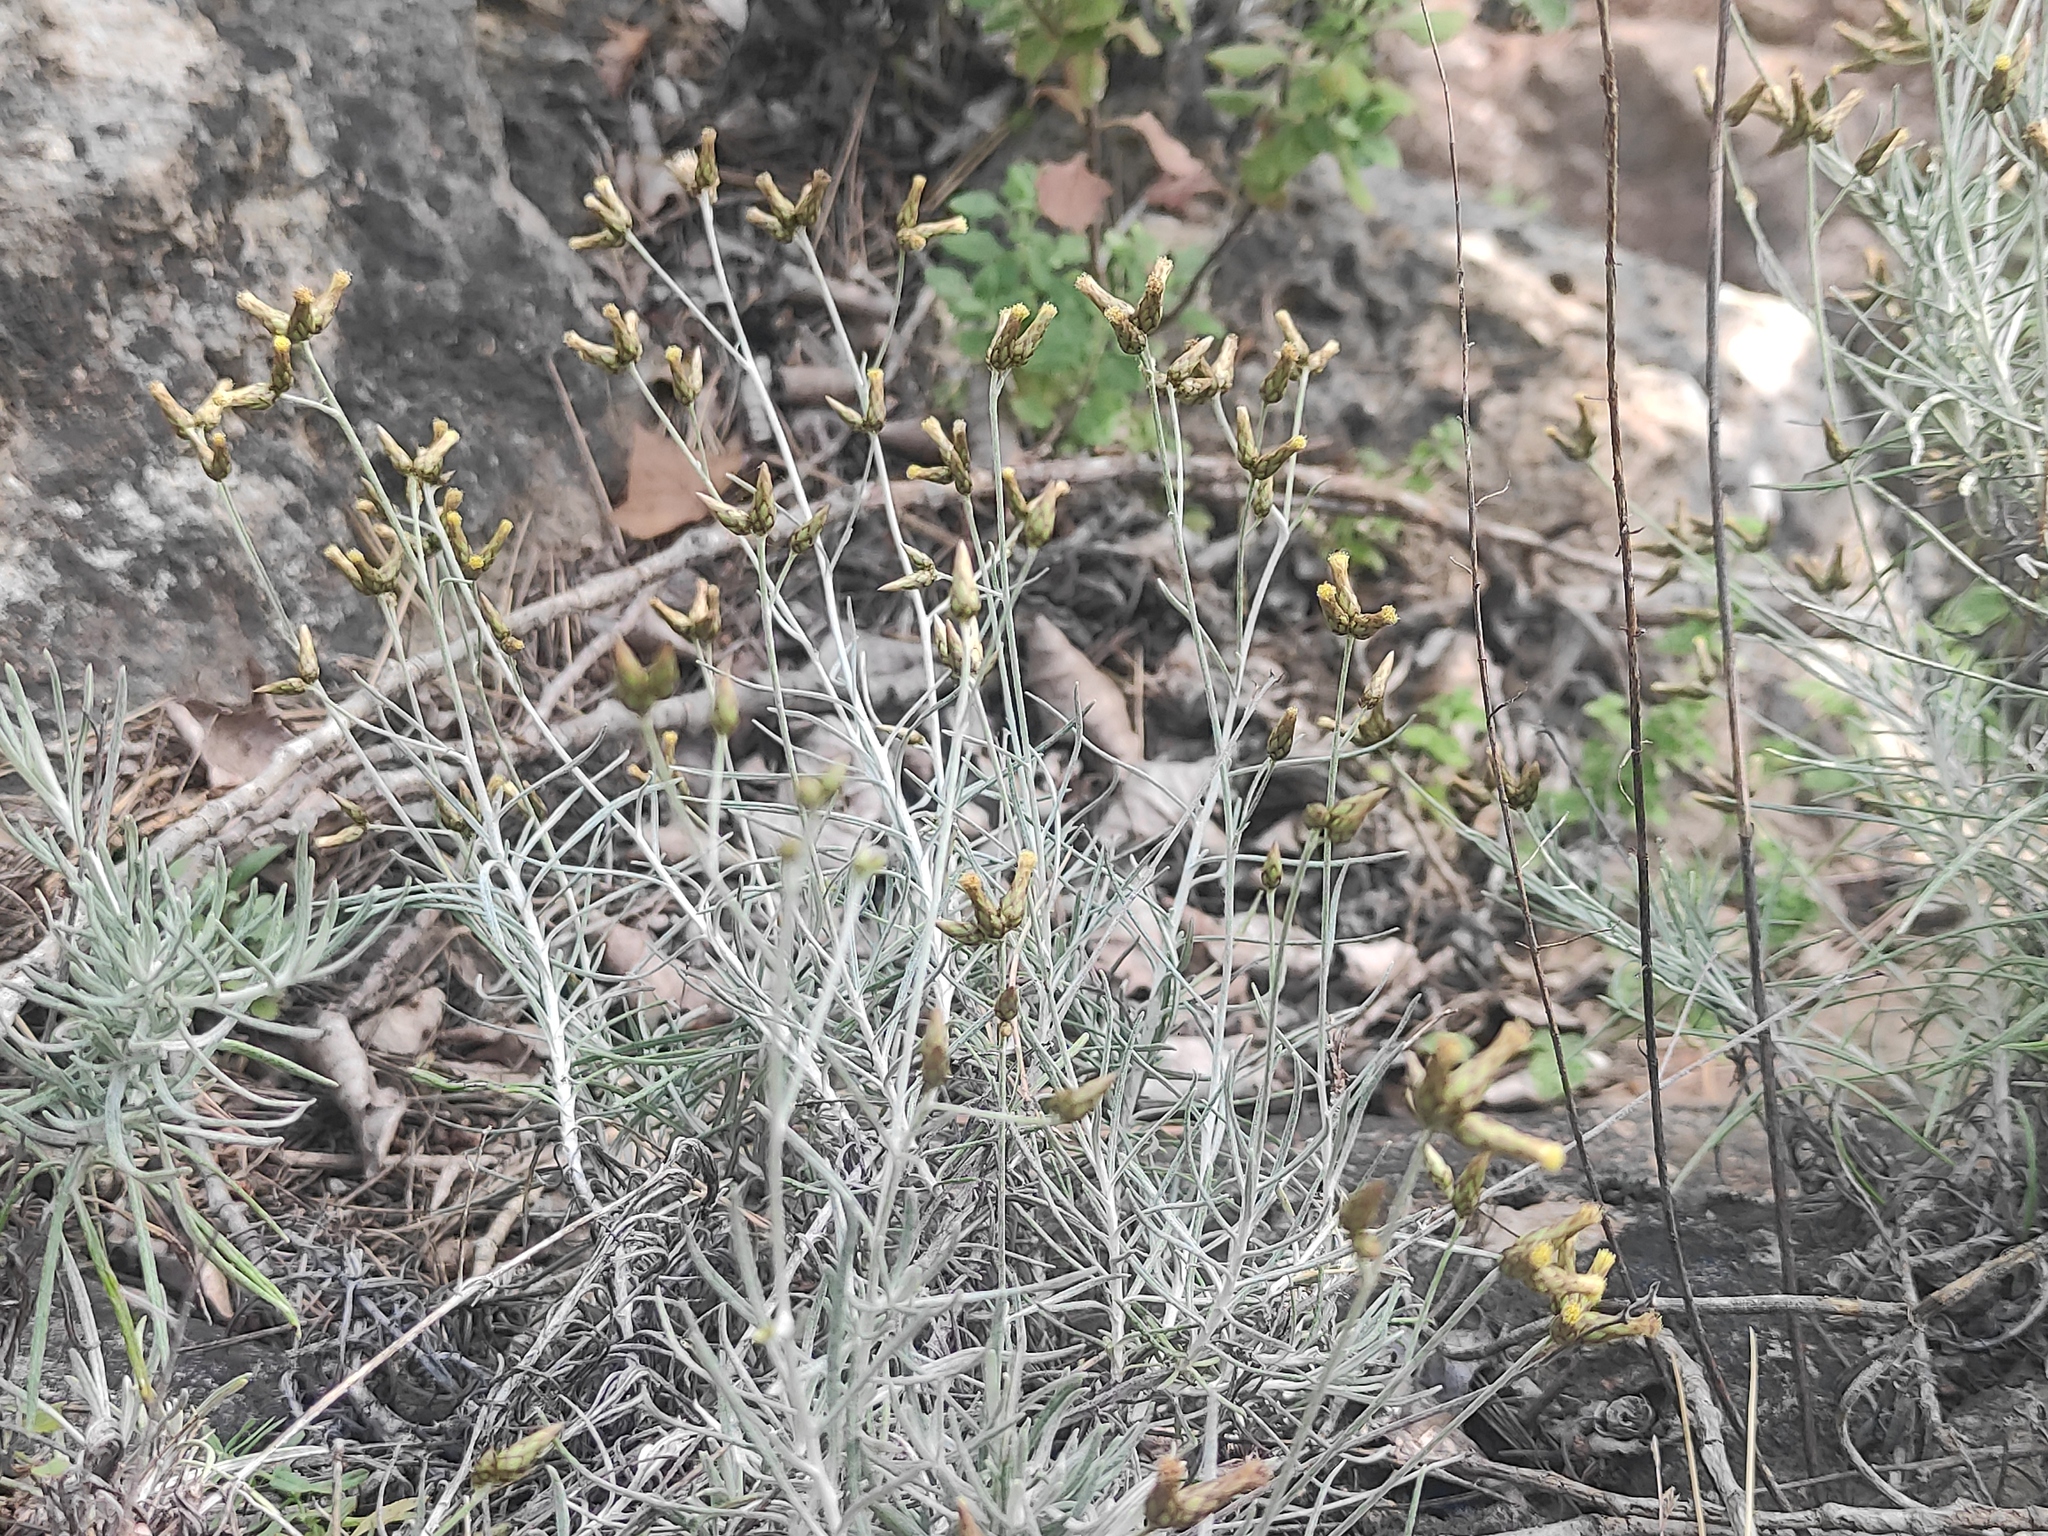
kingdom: Plantae
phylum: Tracheophyta
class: Magnoliopsida
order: Asterales
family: Asteraceae
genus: Phagnalon
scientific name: Phagnalon sordidum
